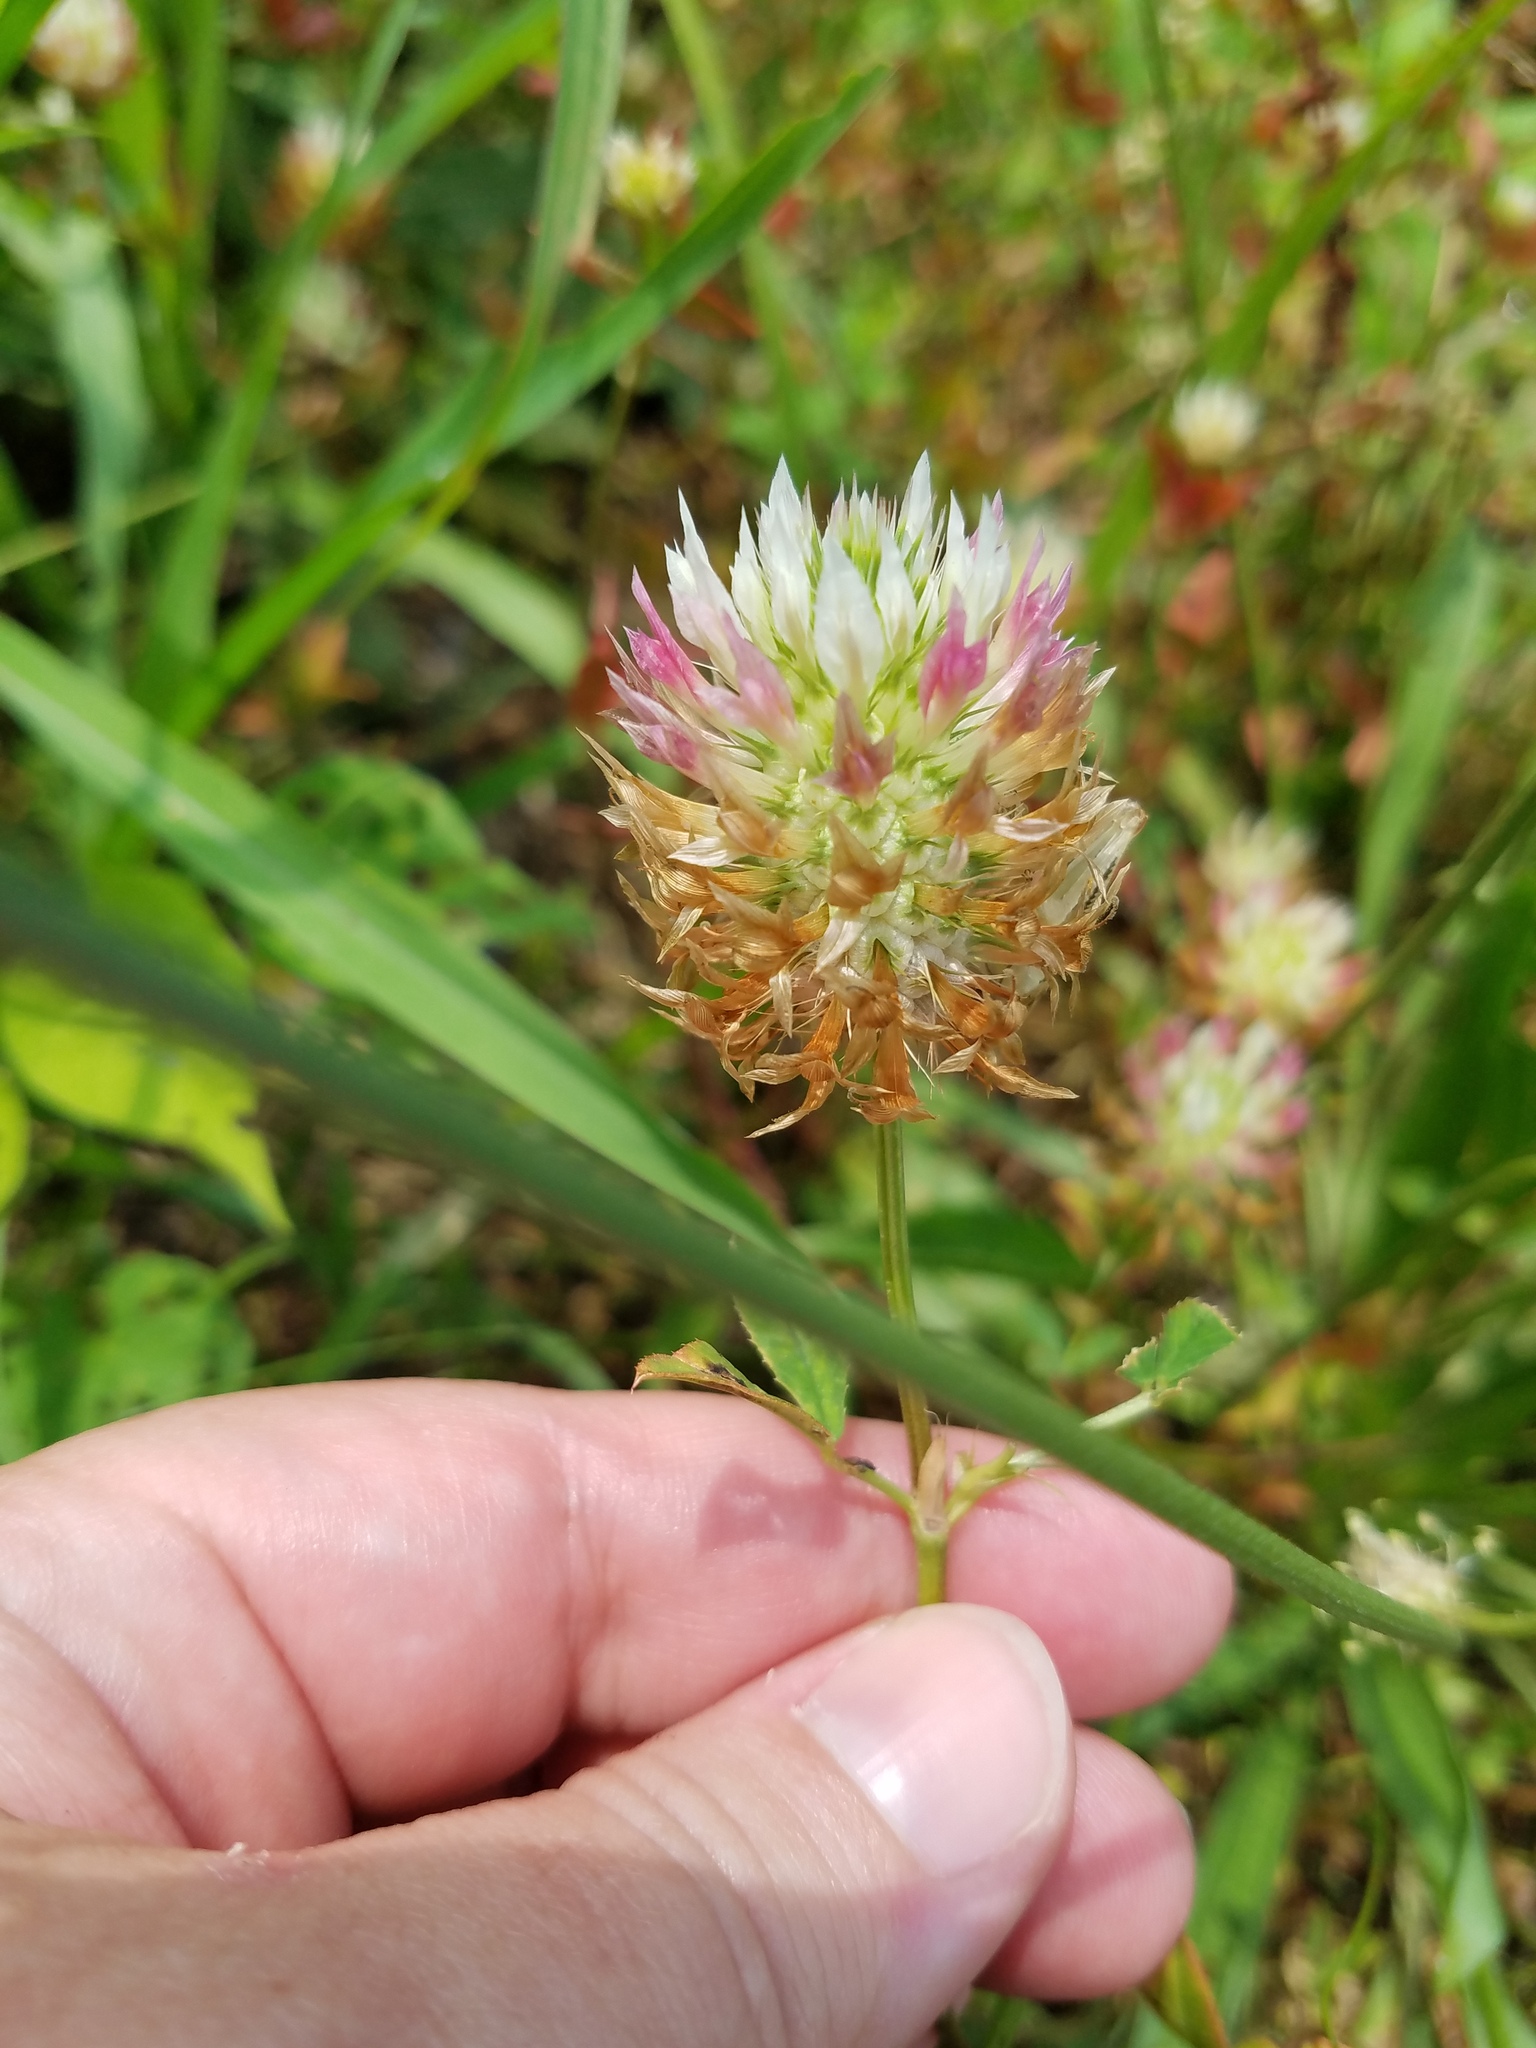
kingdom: Plantae
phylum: Tracheophyta
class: Magnoliopsida
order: Fabales
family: Fabaceae
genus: Trifolium
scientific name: Trifolium vesiculosum
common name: Arrowleaf clover
